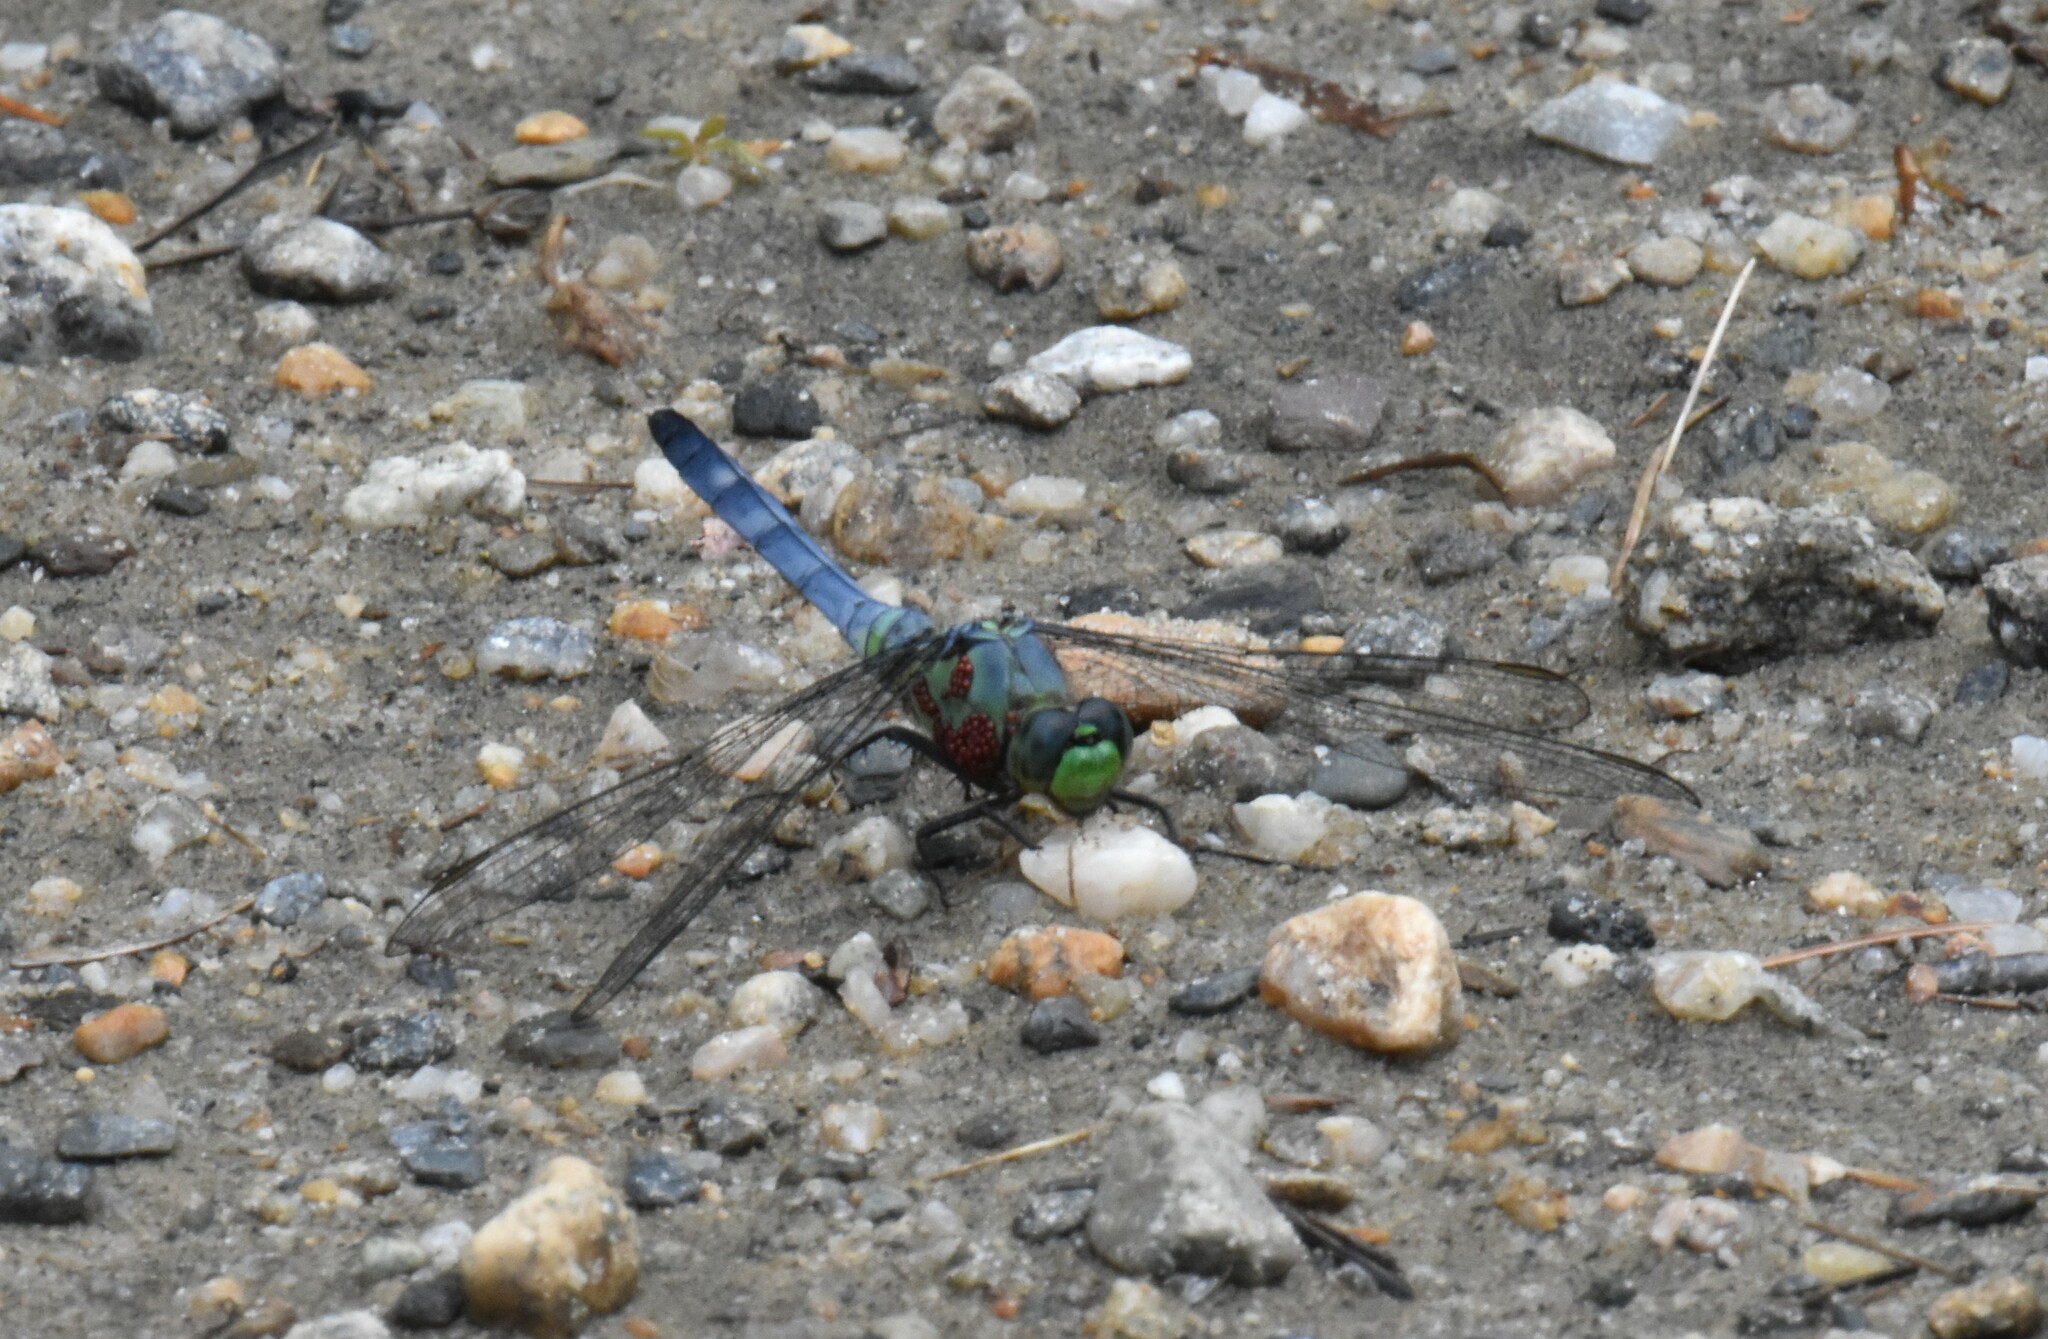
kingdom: Animalia
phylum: Arthropoda
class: Insecta
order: Odonata
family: Libellulidae
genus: Erythemis
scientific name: Erythemis simplicicollis
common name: Eastern pondhawk
